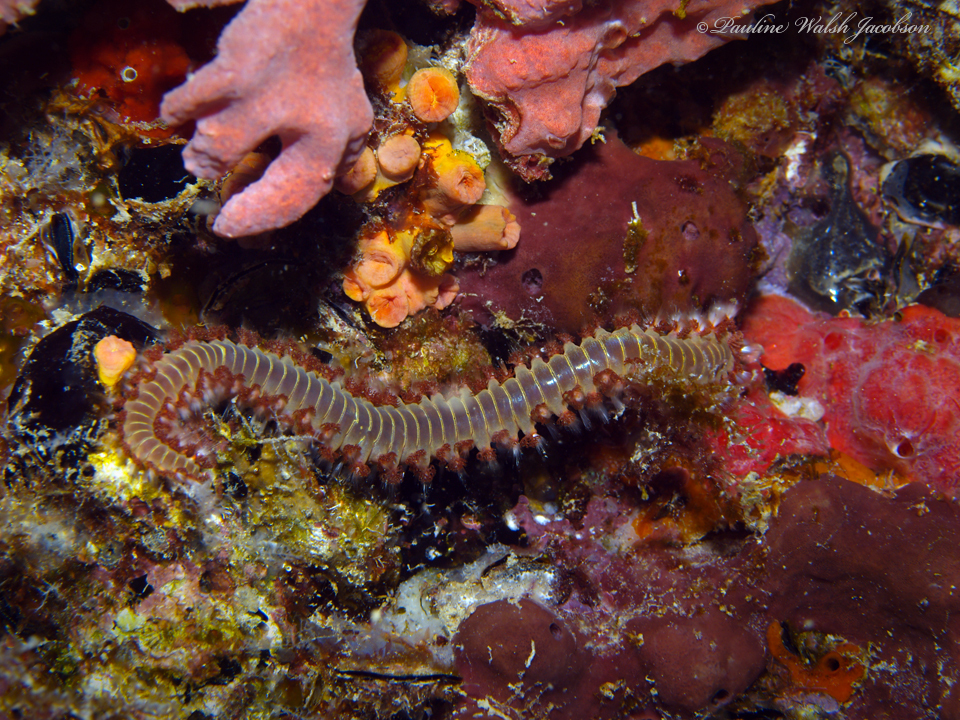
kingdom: Animalia
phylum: Annelida
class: Polychaeta
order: Amphinomida
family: Amphinomidae
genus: Hermodice
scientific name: Hermodice carunculata
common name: Bearded fireworm
